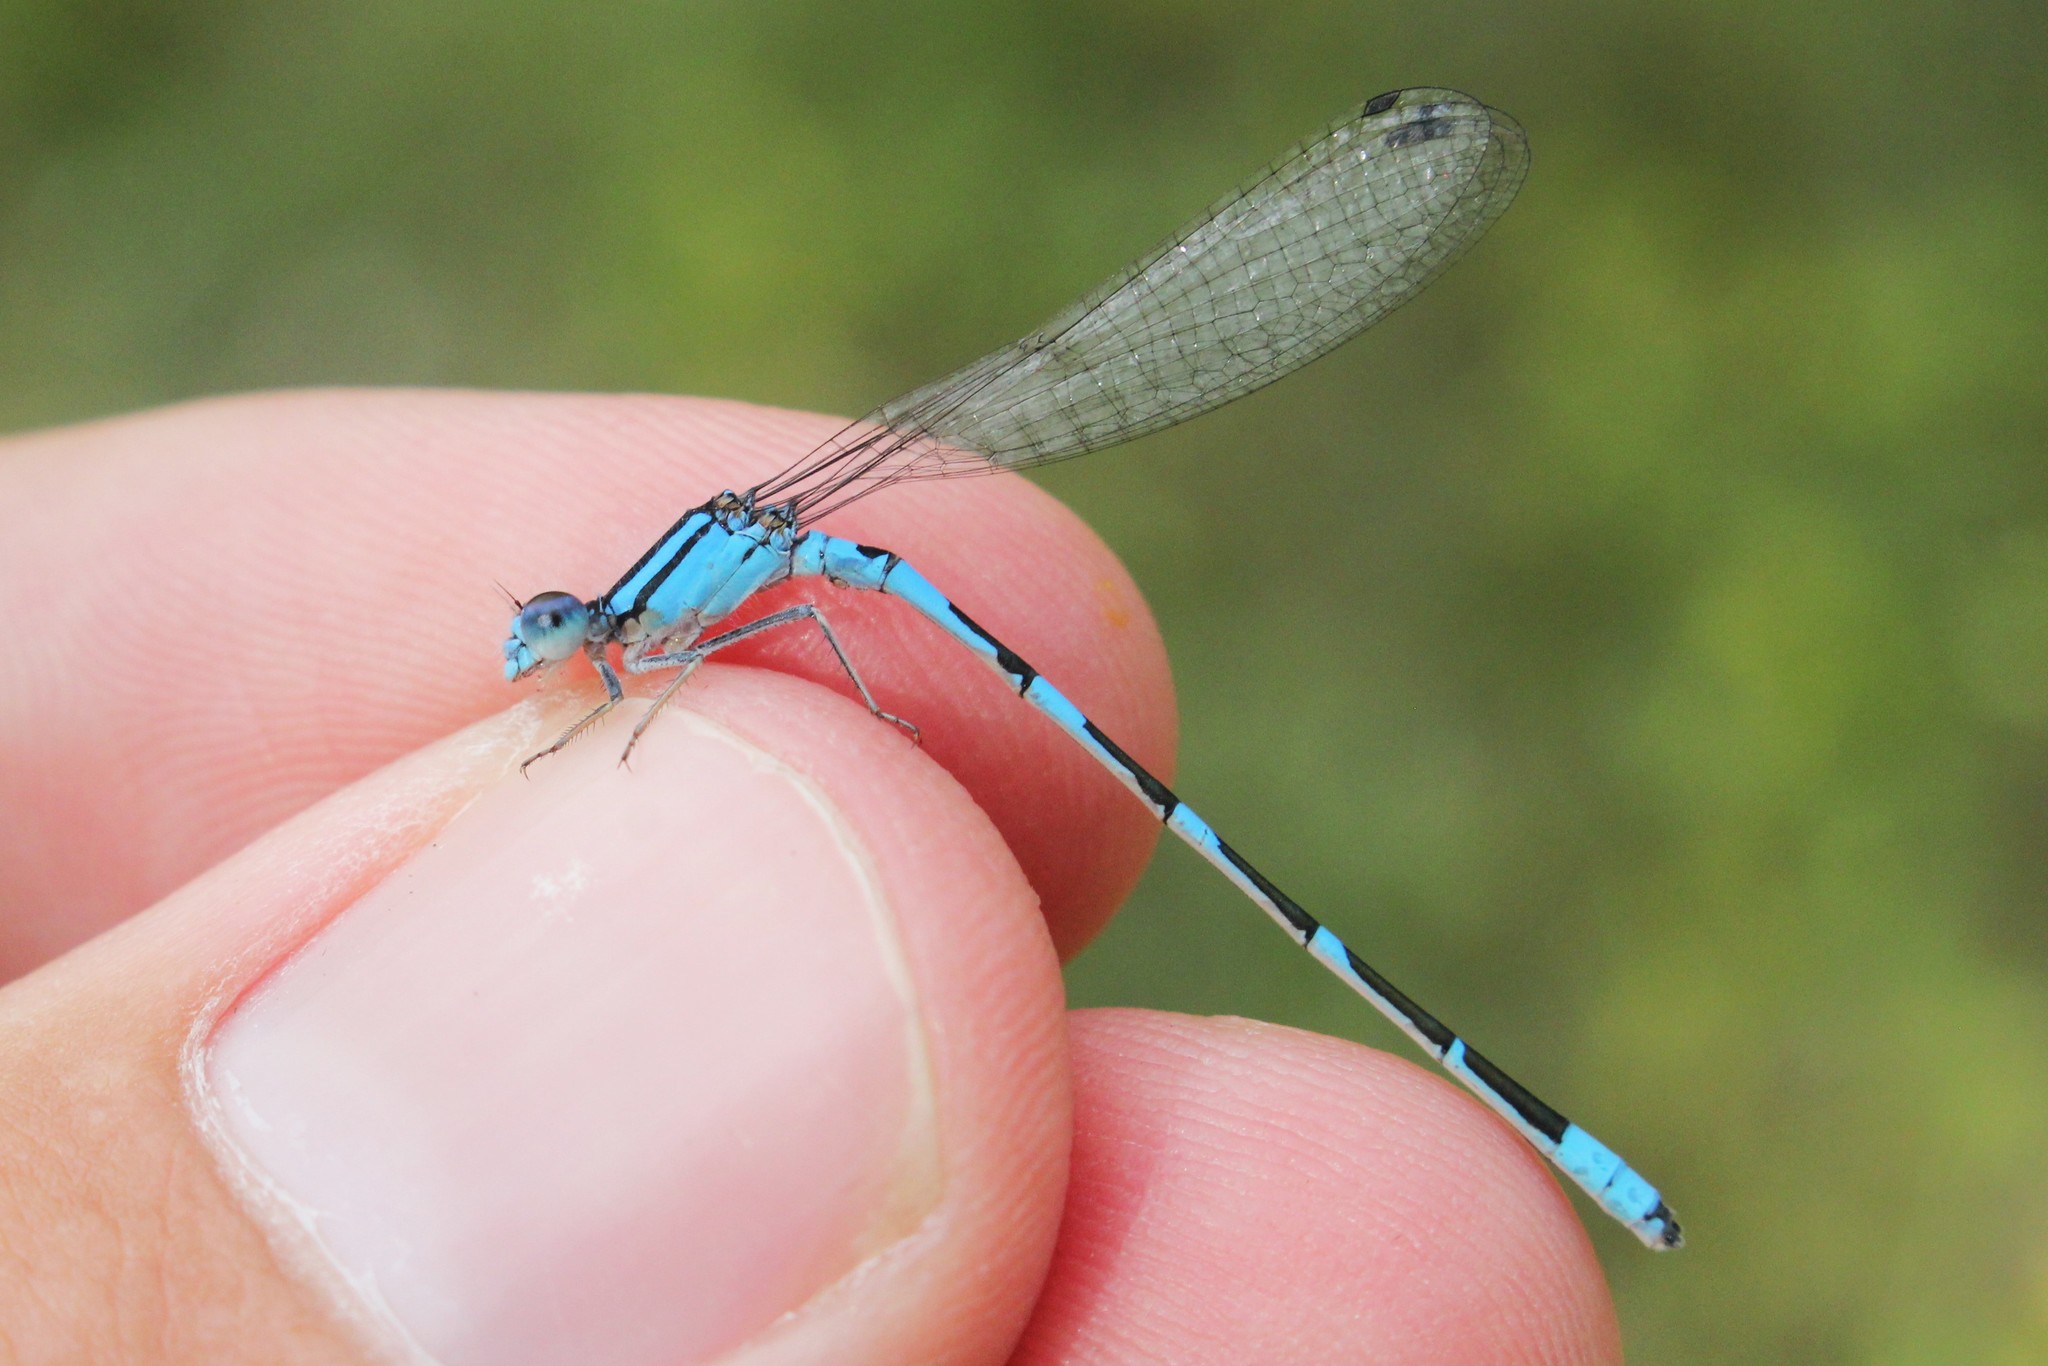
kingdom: Animalia
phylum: Arthropoda
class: Insecta
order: Odonata
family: Coenagrionidae
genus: Enallagma
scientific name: Enallagma carunculatum
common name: Tule bluet
